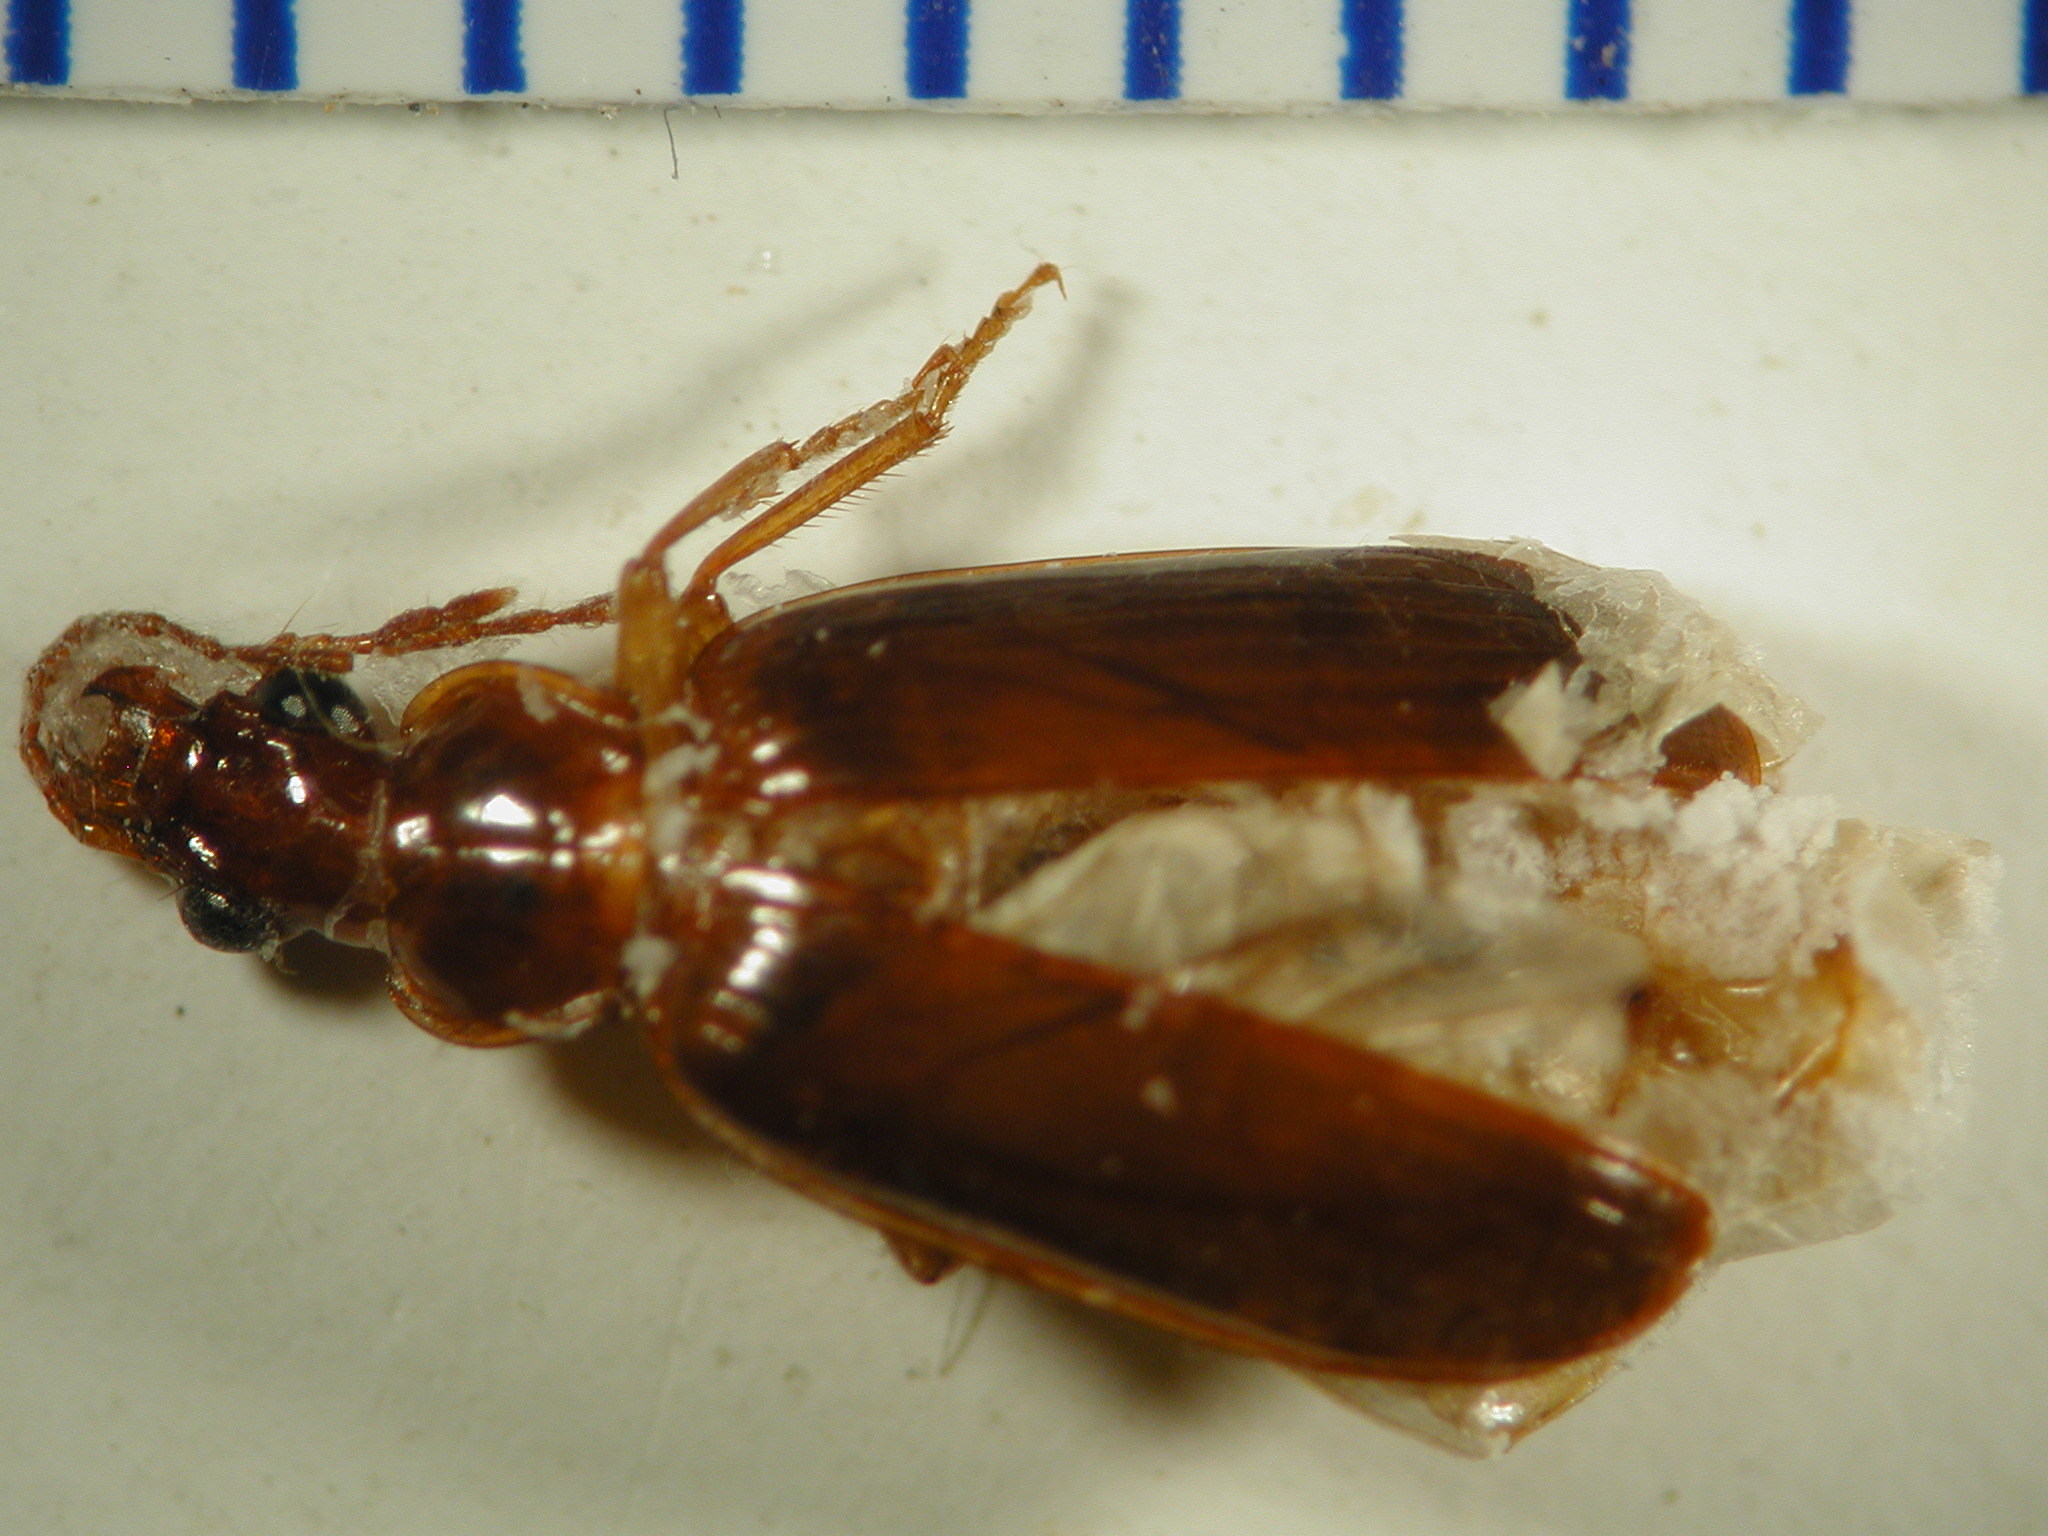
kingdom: Animalia
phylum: Arthropoda
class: Insecta
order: Coleoptera
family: Carabidae
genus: Amblytelus
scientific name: Amblytelus longipennis
